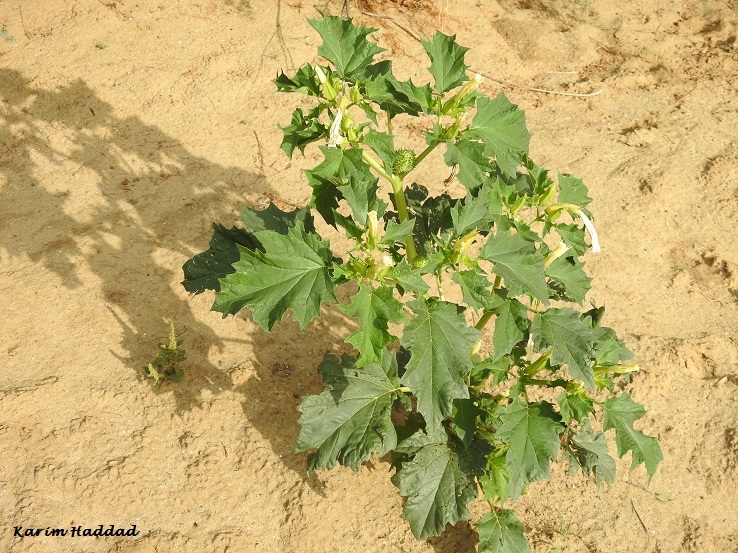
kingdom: Plantae
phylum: Tracheophyta
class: Magnoliopsida
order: Solanales
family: Solanaceae
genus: Datura
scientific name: Datura stramonium
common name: Thorn-apple
